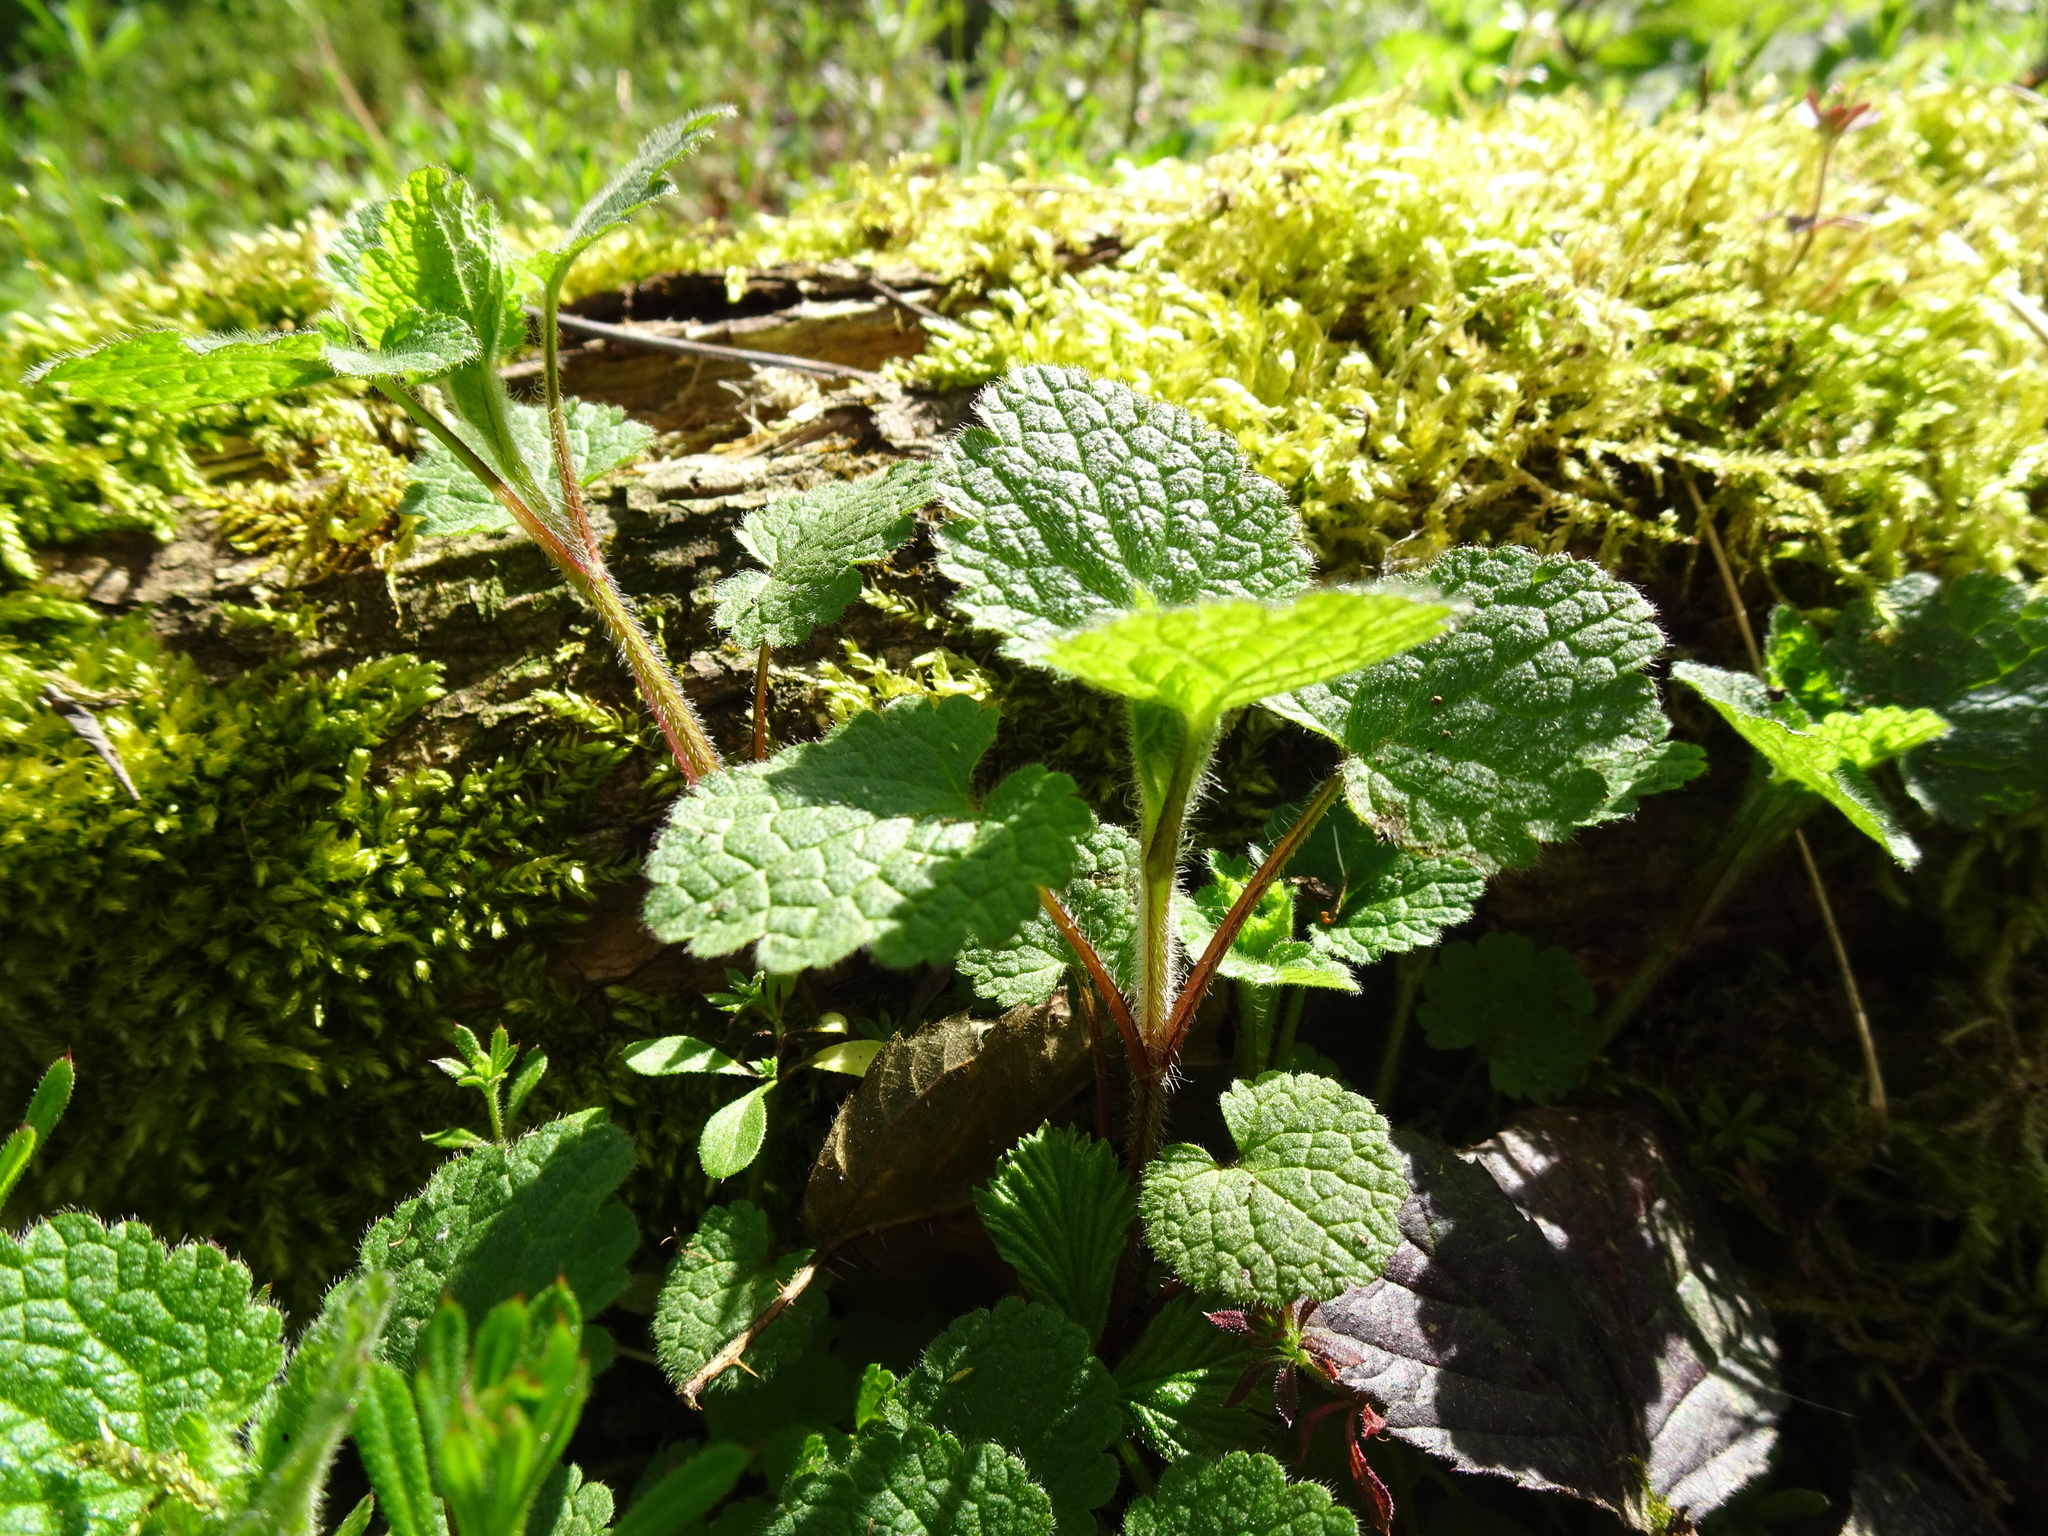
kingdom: Plantae
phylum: Tracheophyta
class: Magnoliopsida
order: Lamiales
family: Lamiaceae
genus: Stachys
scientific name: Stachys sylvatica
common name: Hedge woundwort
